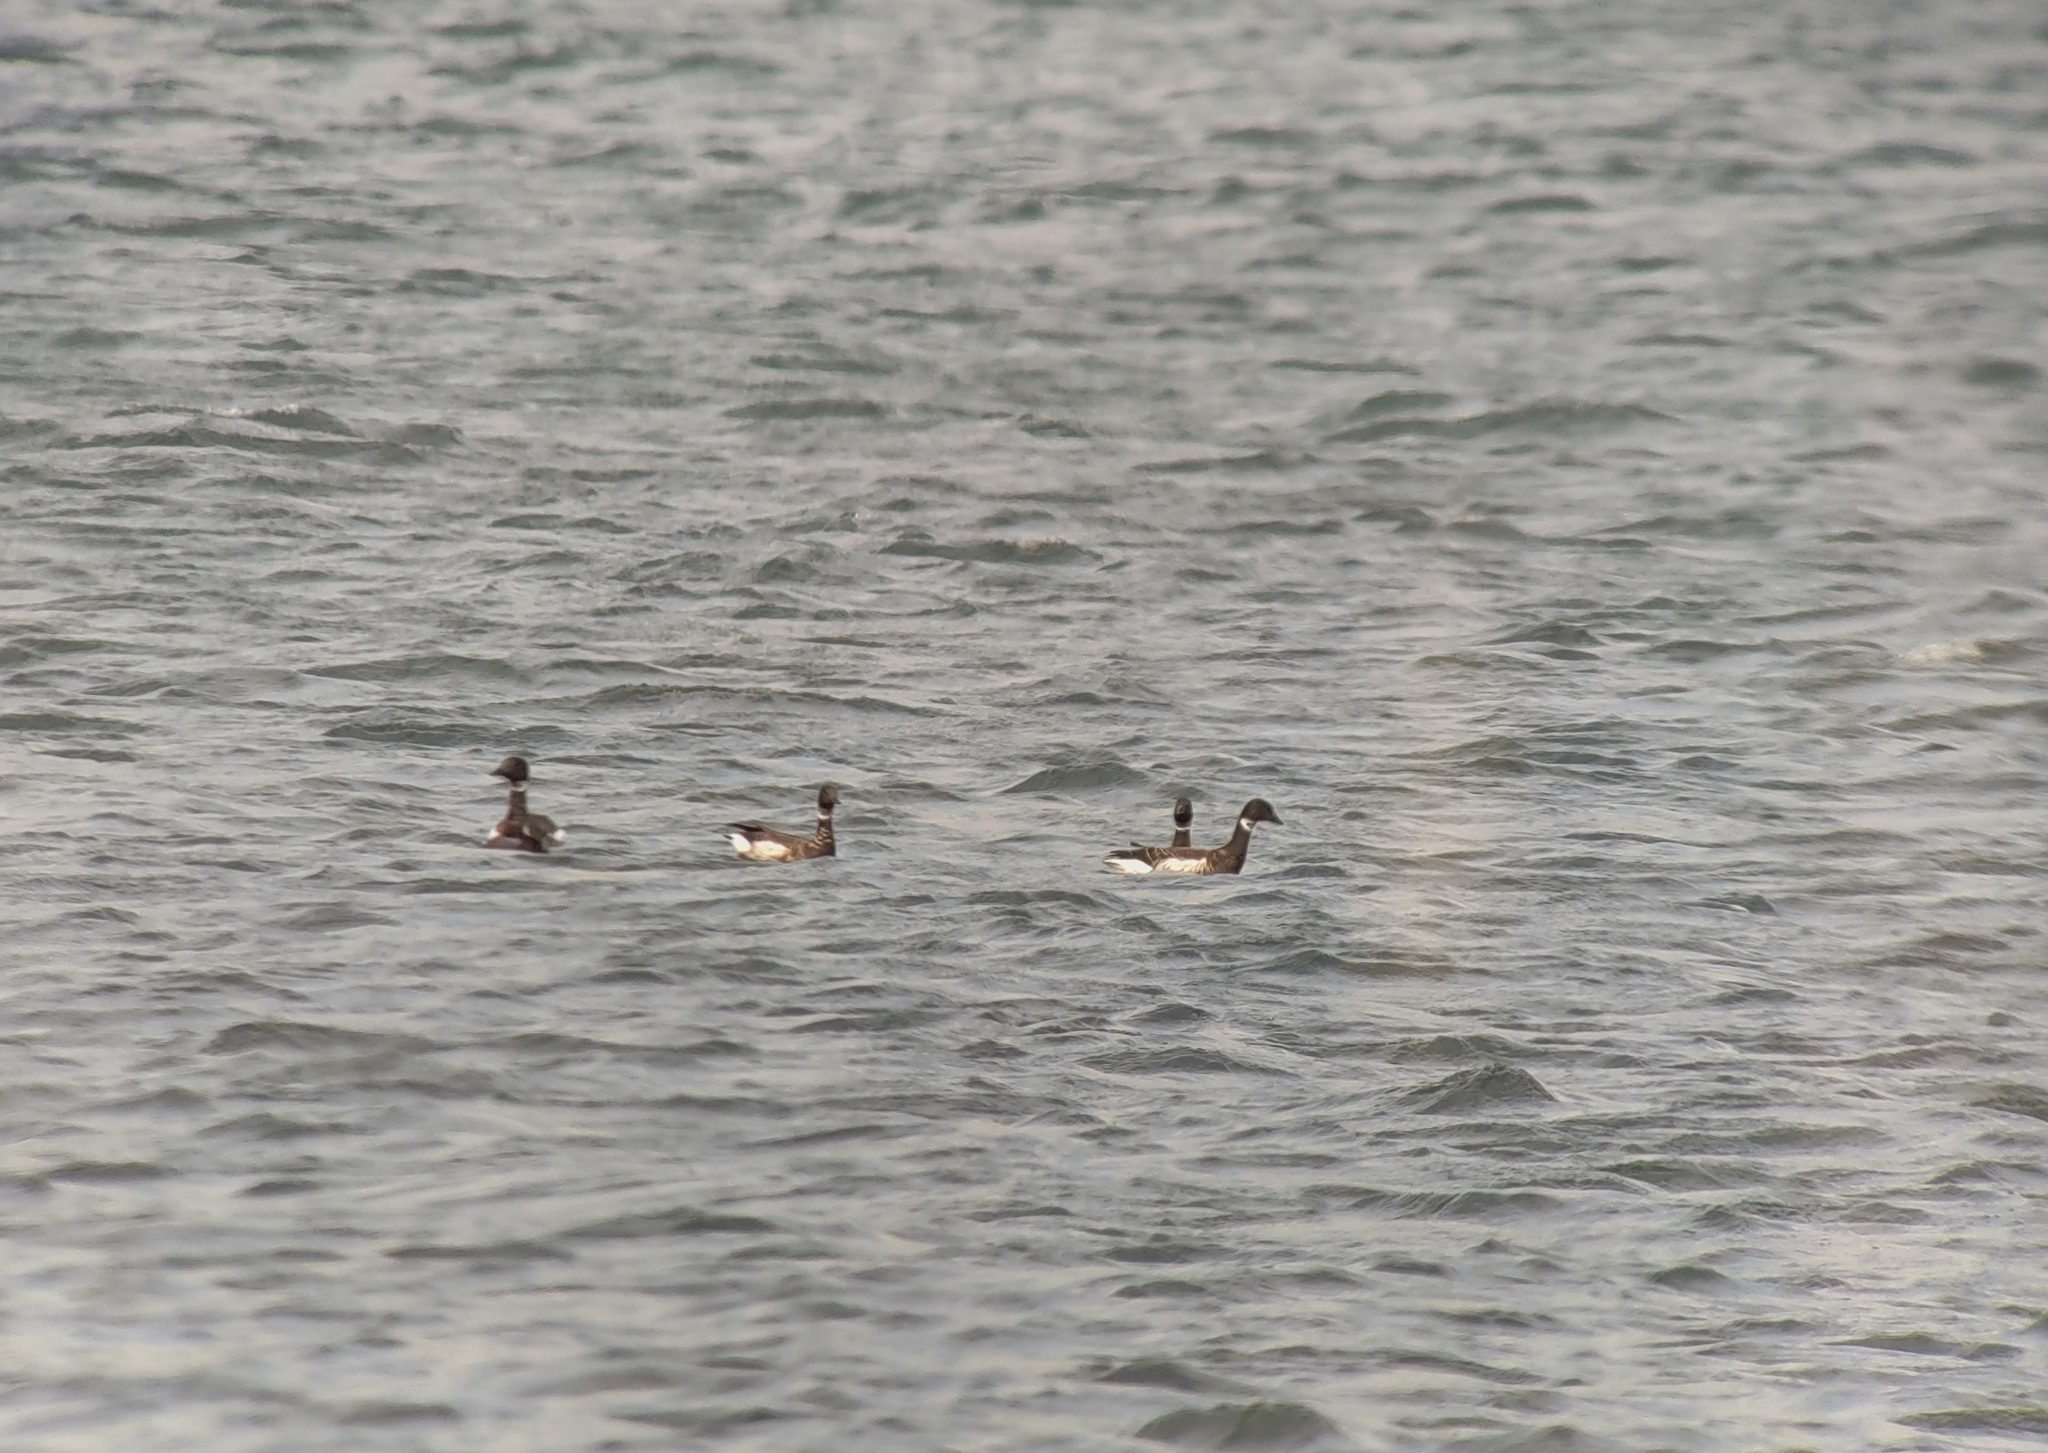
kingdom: Animalia
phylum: Chordata
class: Aves
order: Anseriformes
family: Anatidae
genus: Branta
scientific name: Branta bernicla
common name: Brant goose
